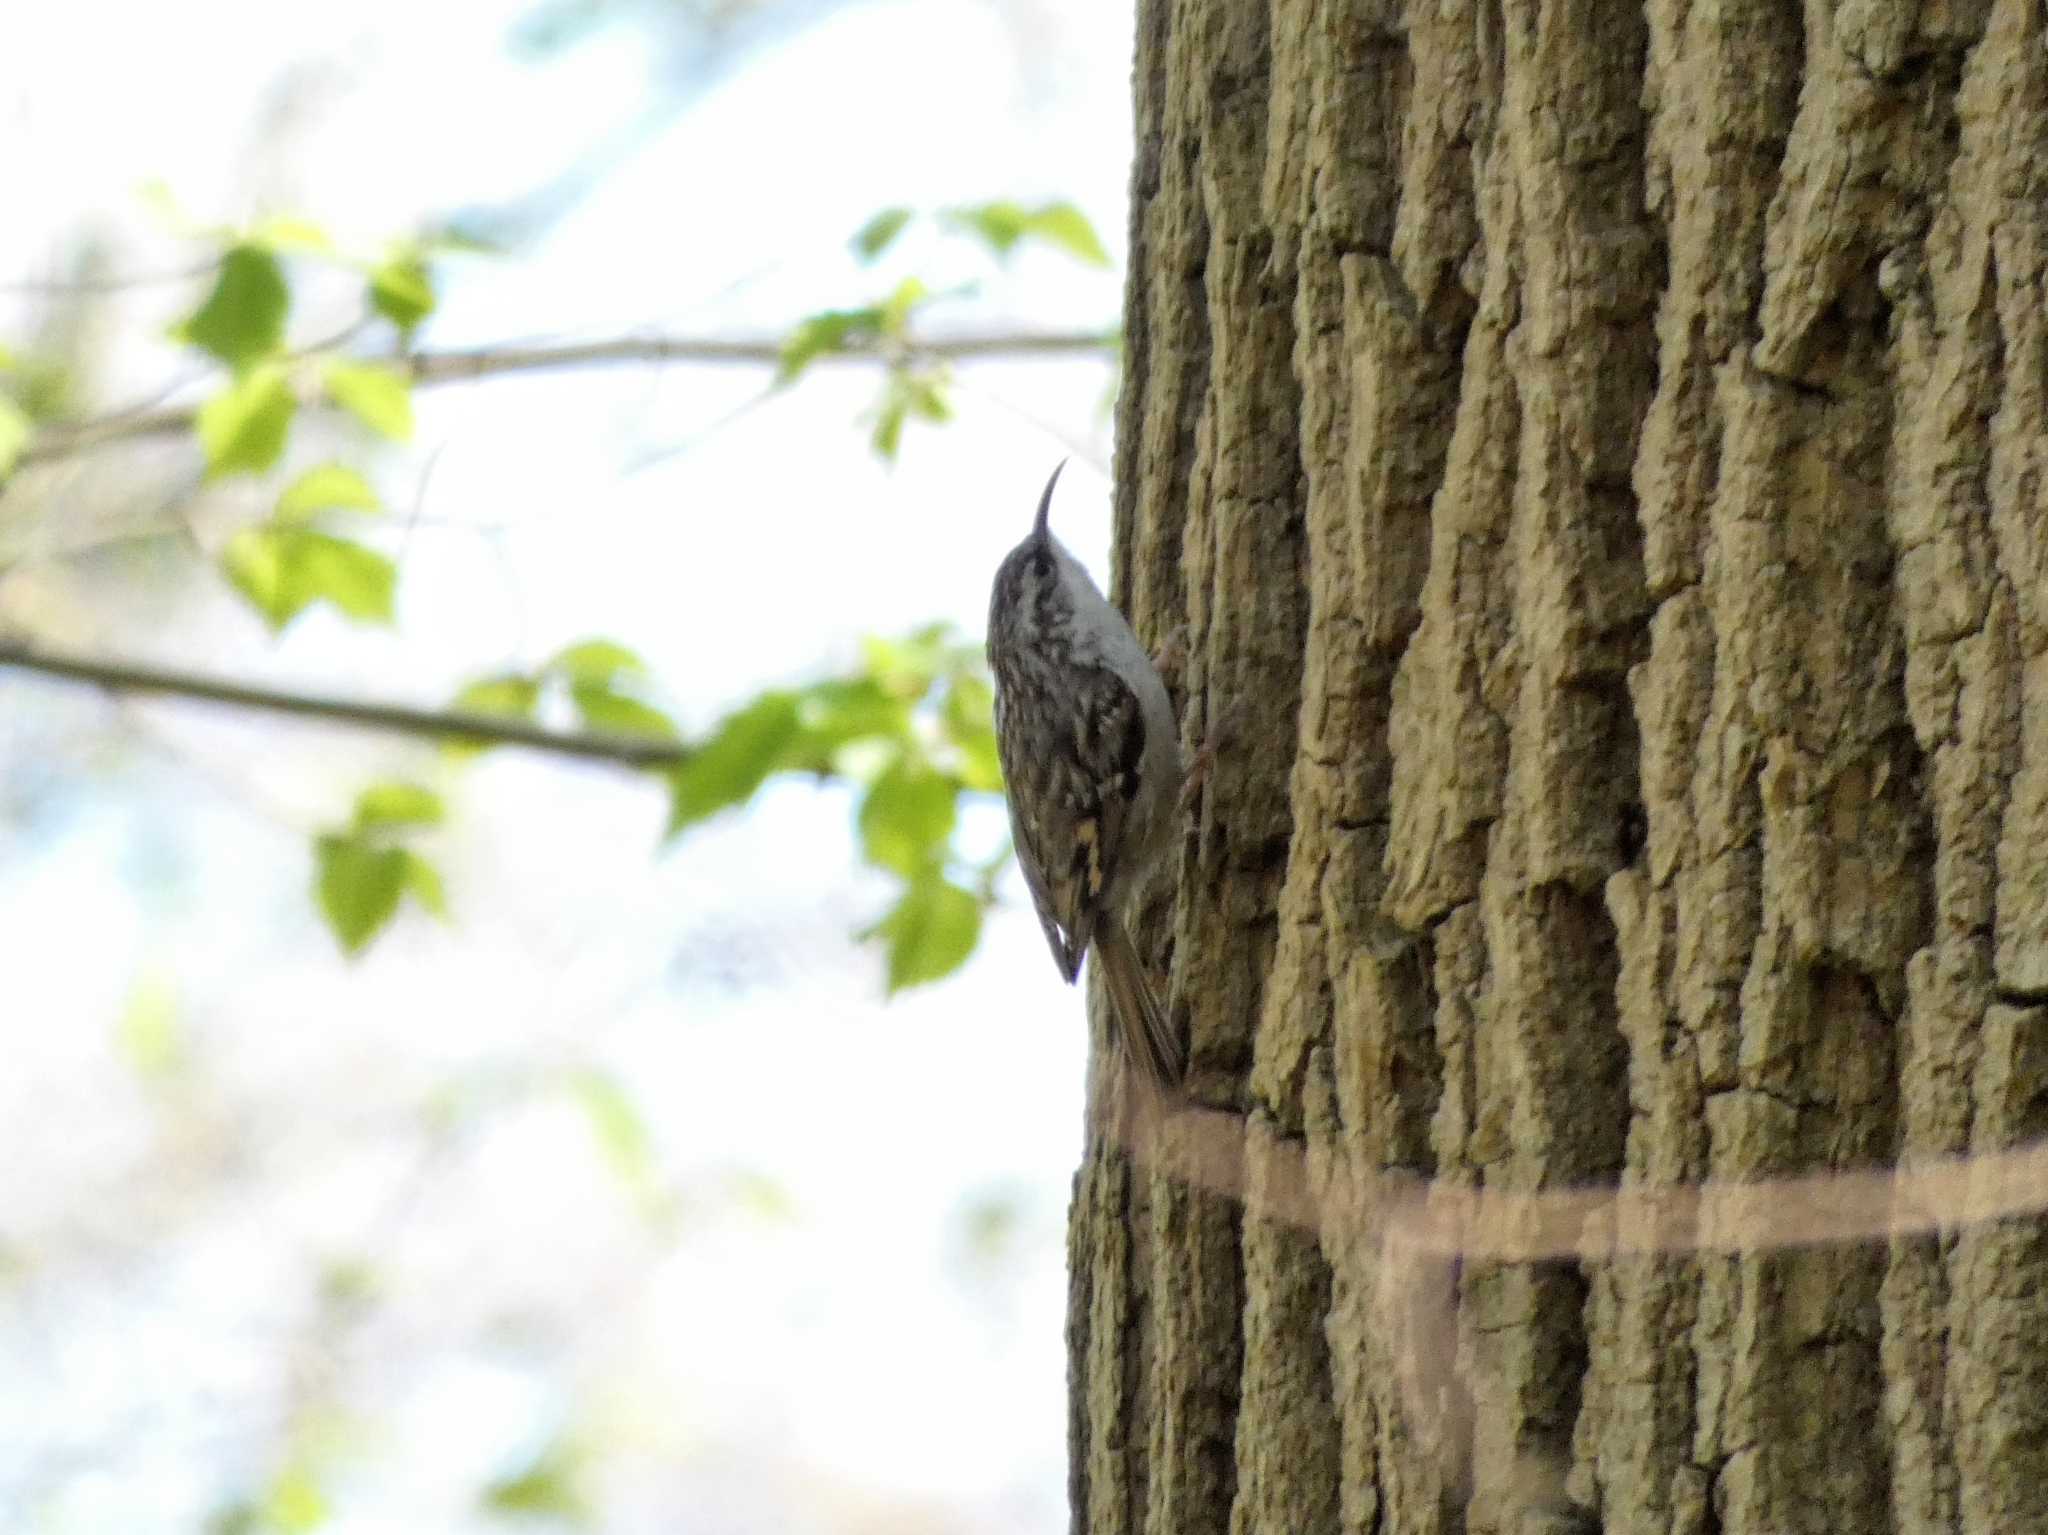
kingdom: Animalia
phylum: Chordata
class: Aves
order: Passeriformes
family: Certhiidae
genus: Certhia
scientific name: Certhia familiaris
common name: Eurasian treecreeper
